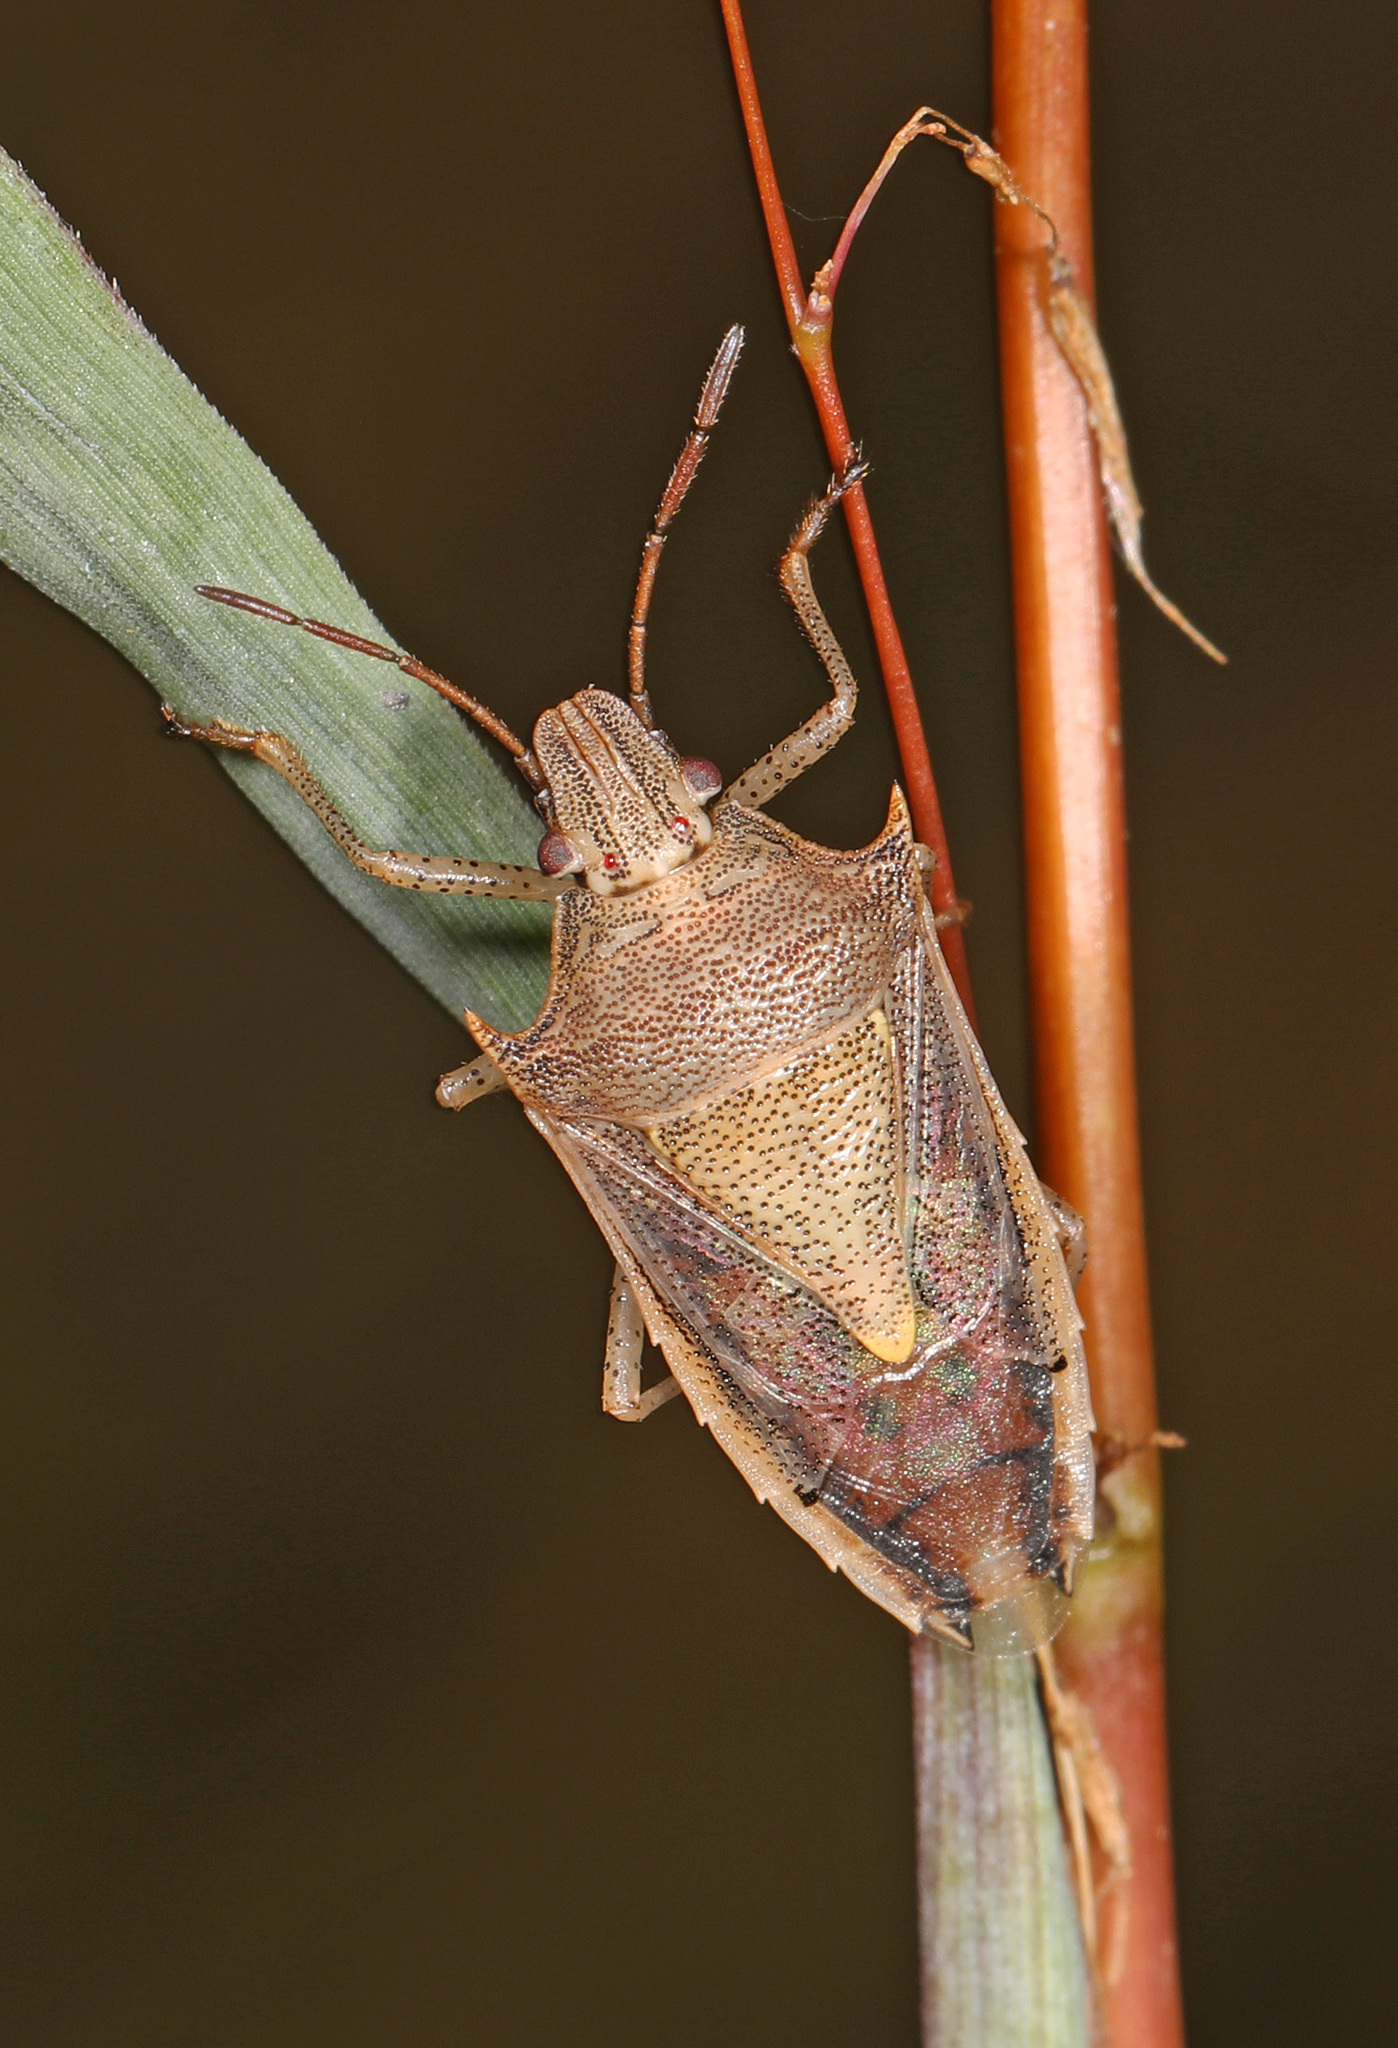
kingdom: Animalia
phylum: Arthropoda
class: Insecta
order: Hemiptera
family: Pentatomidae
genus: Oebalus
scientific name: Oebalus pugnax
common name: Rice stink bug
